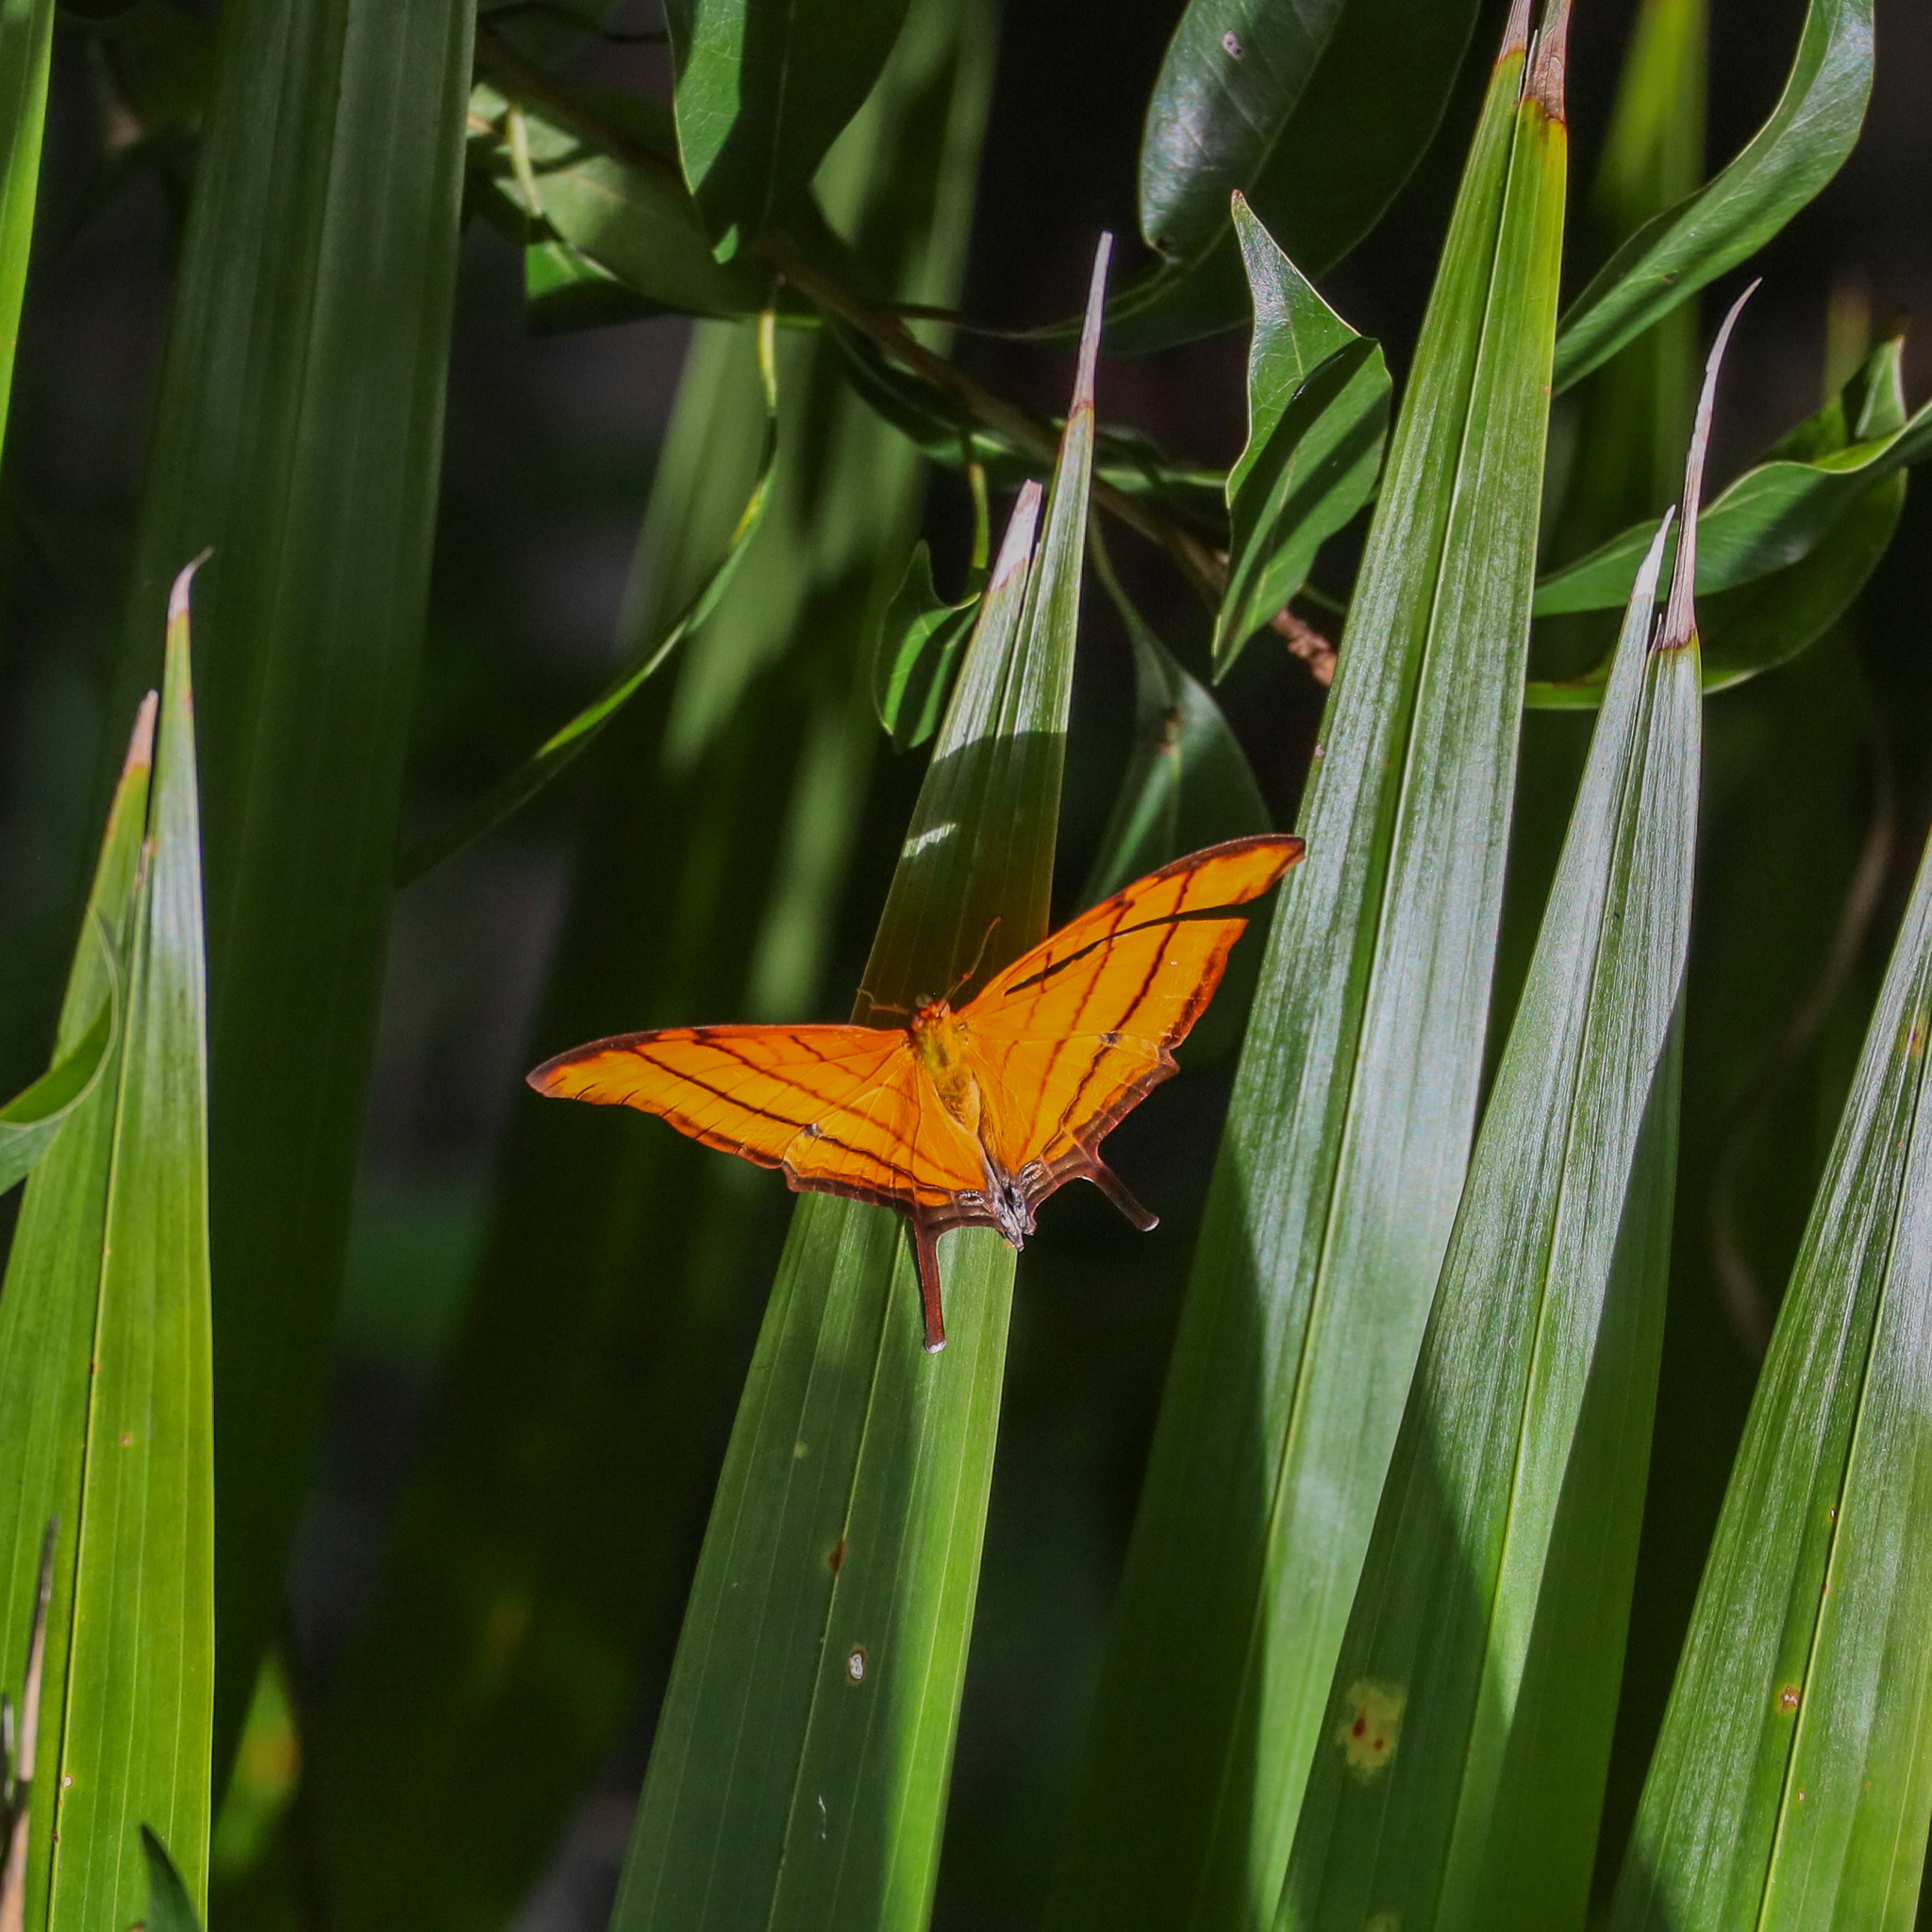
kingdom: Animalia
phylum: Arthropoda
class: Insecta
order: Lepidoptera
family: Nymphalidae
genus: Marpesia
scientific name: Marpesia petreus
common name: Red dagger wing
